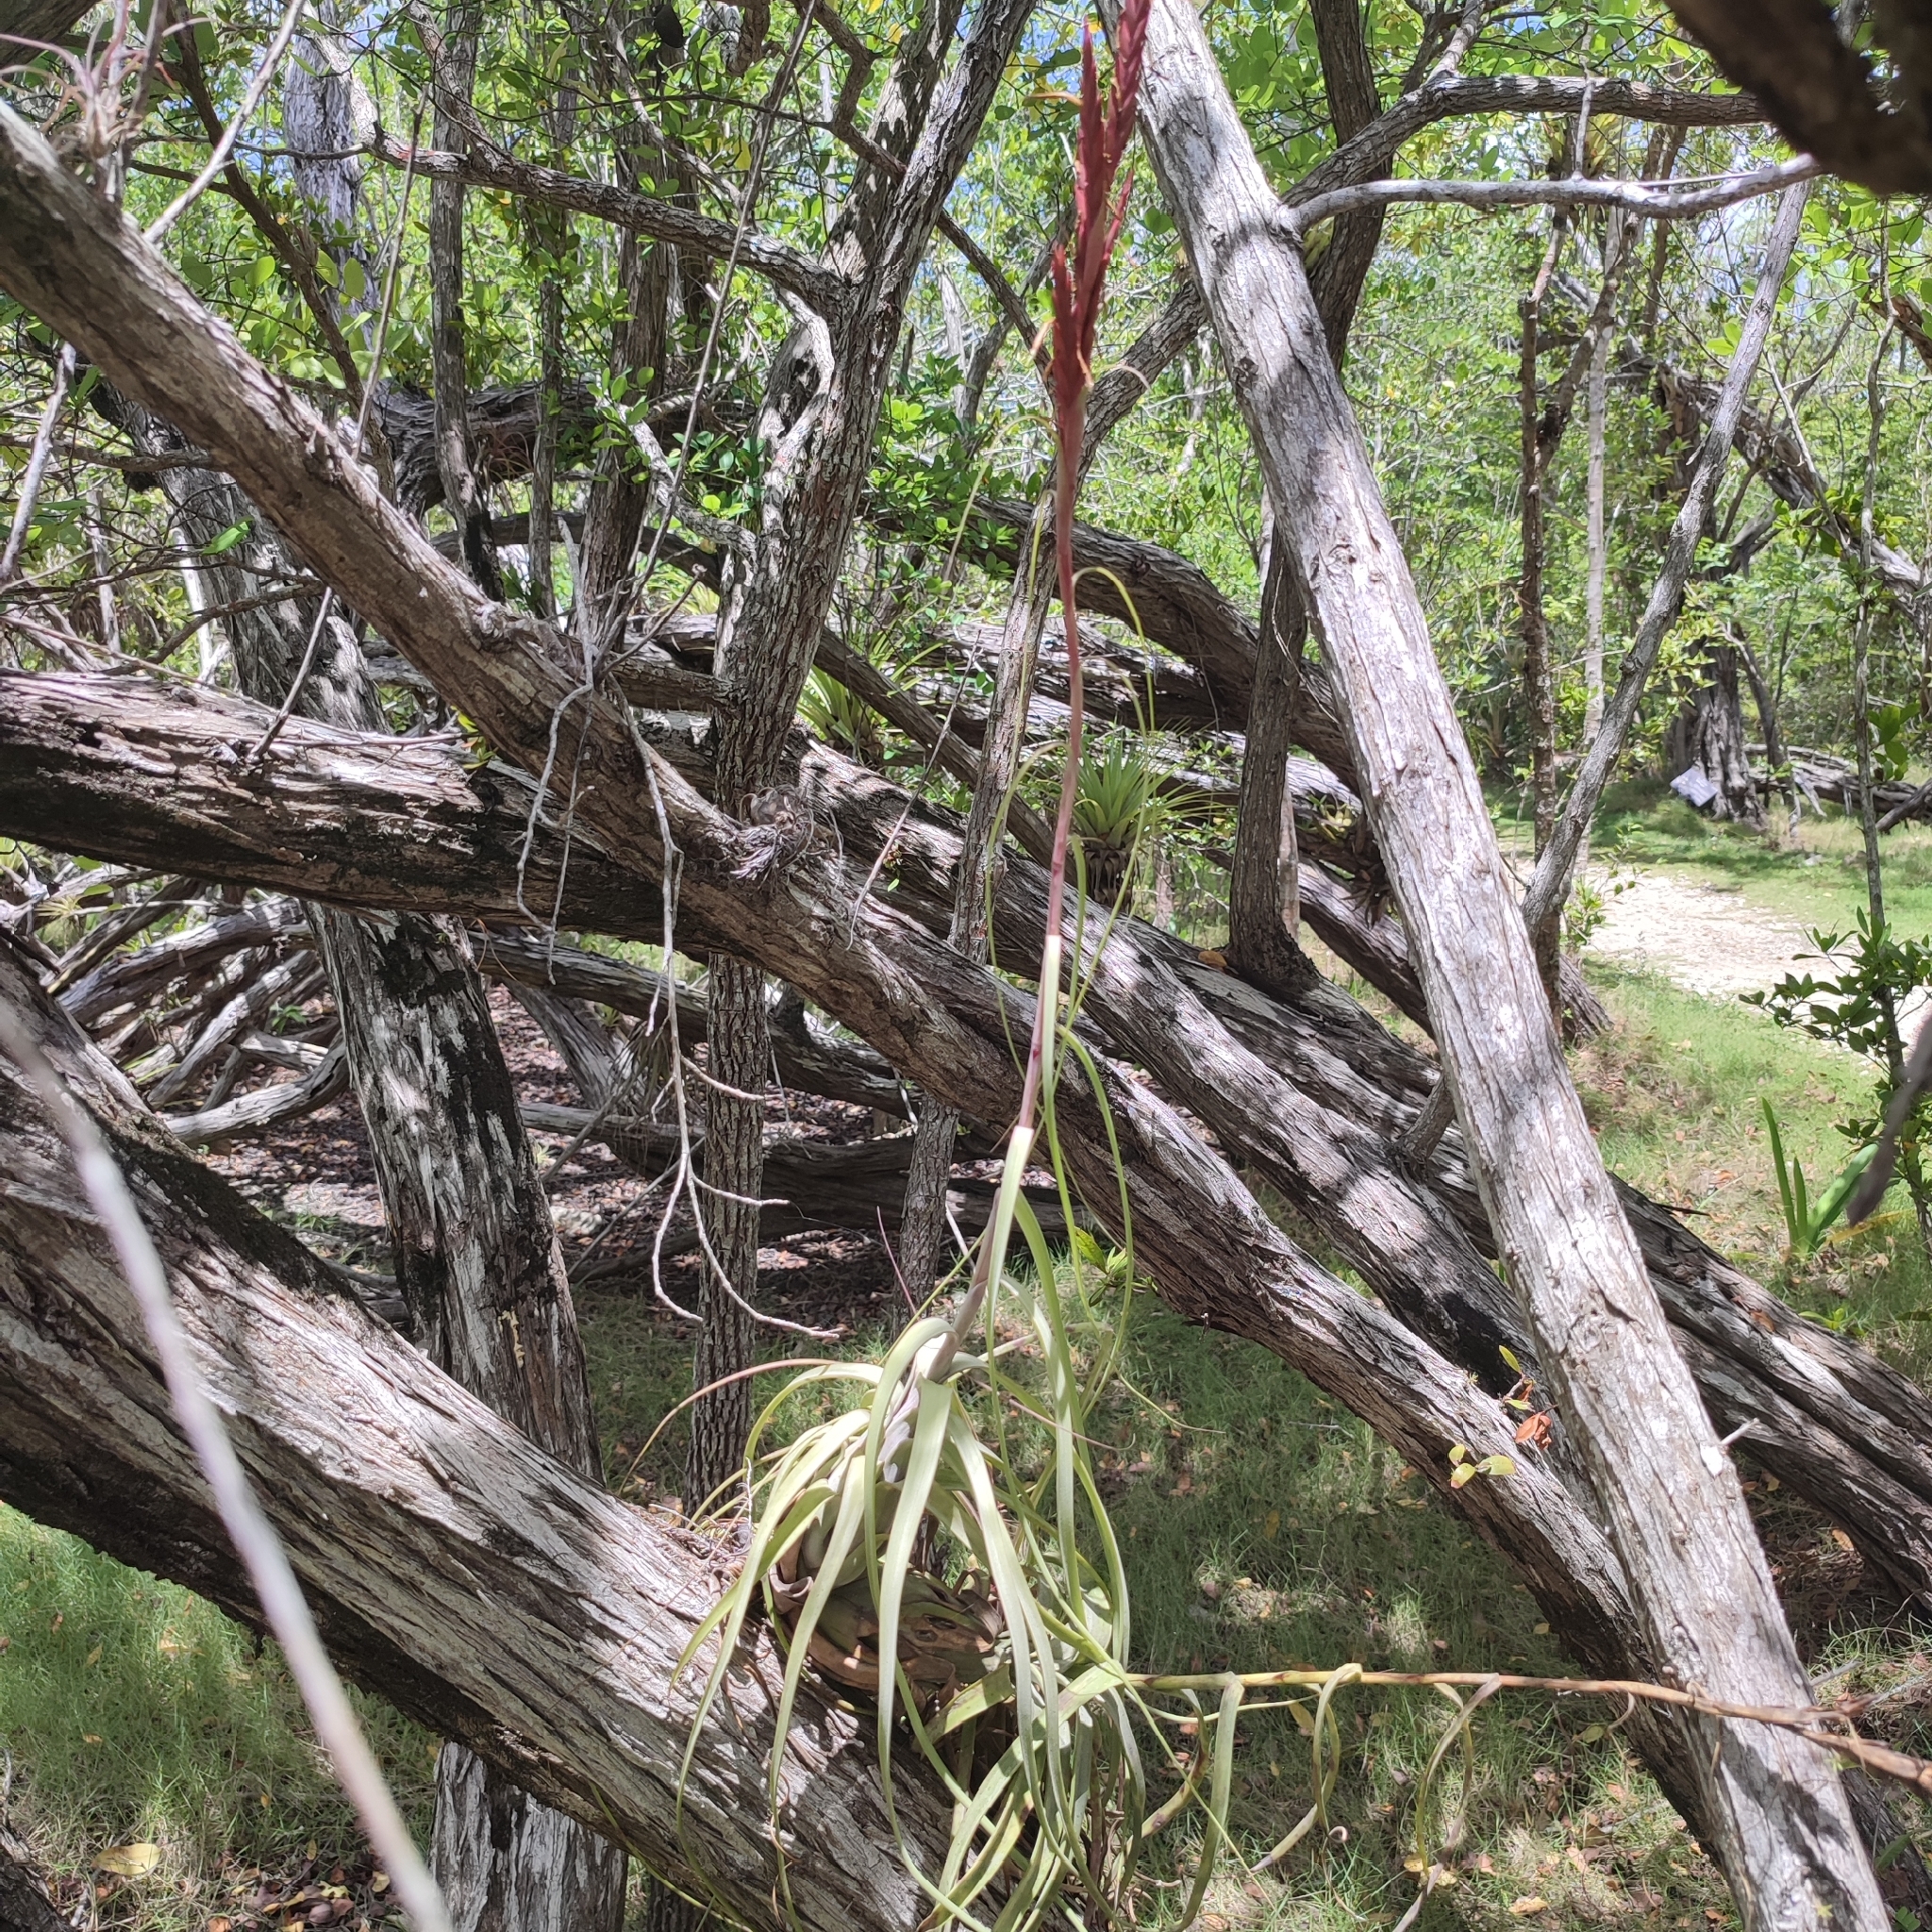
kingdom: Plantae
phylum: Tracheophyta
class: Liliopsida
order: Poales
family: Bromeliaceae
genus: Tillandsia
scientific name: Tillandsia balbisiana
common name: Northern needleleaf
